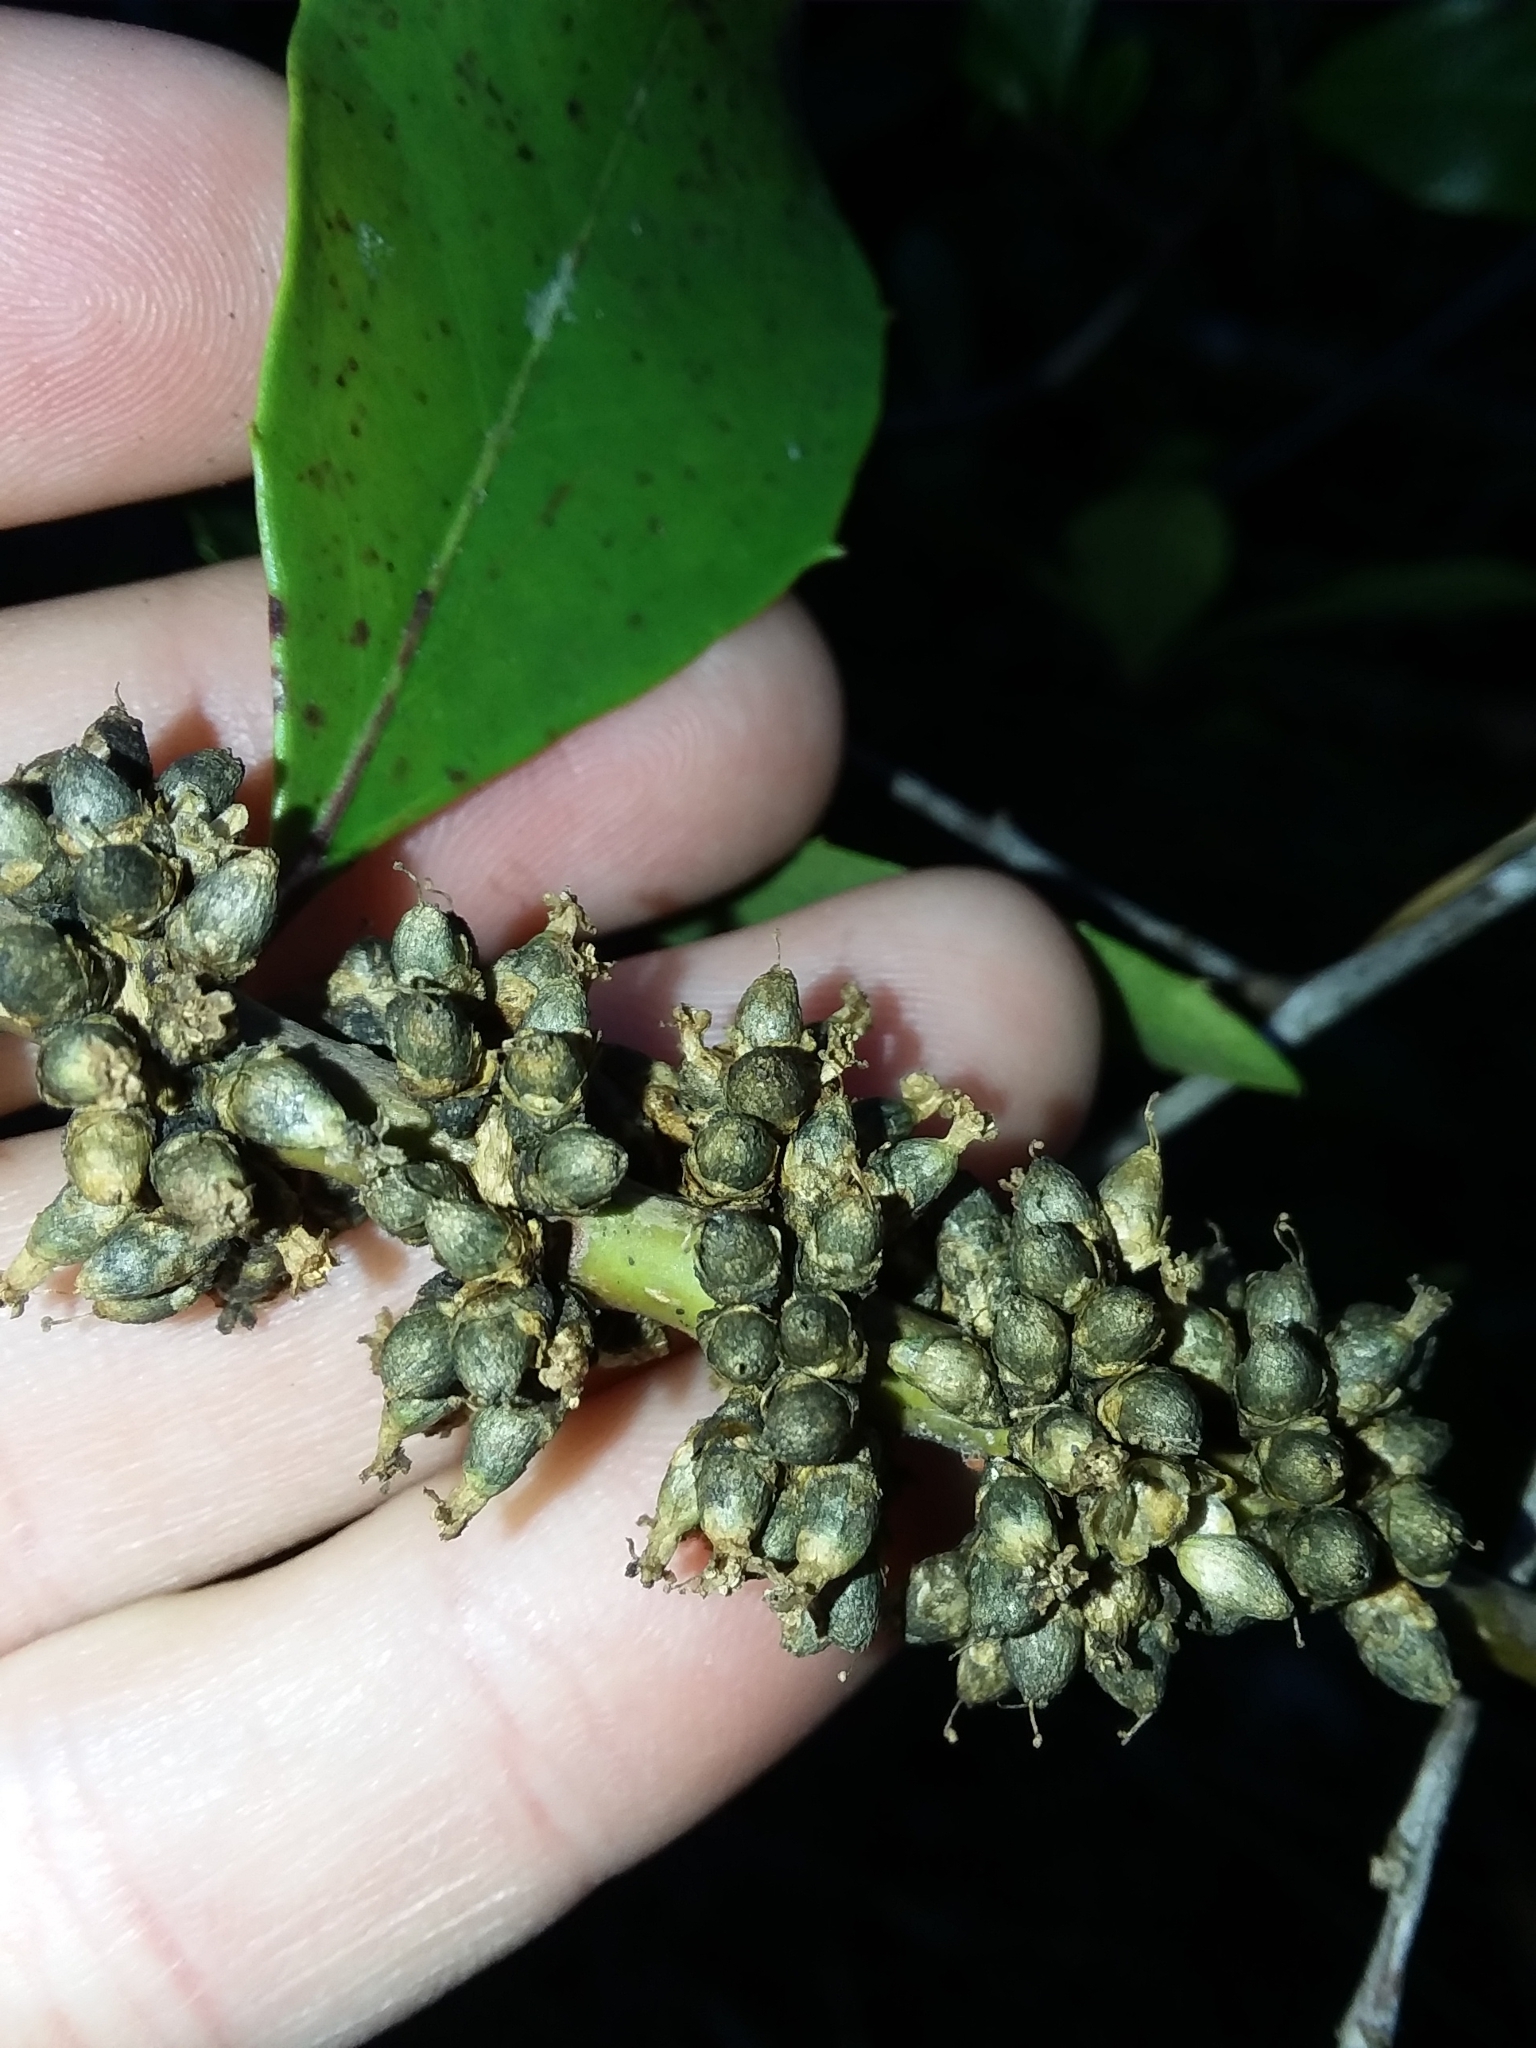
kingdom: Plantae
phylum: Tracheophyta
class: Magnoliopsida
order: Solanales
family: Convolvulaceae
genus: Cuscuta
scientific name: Cuscuta compacta
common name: Compact dodder
